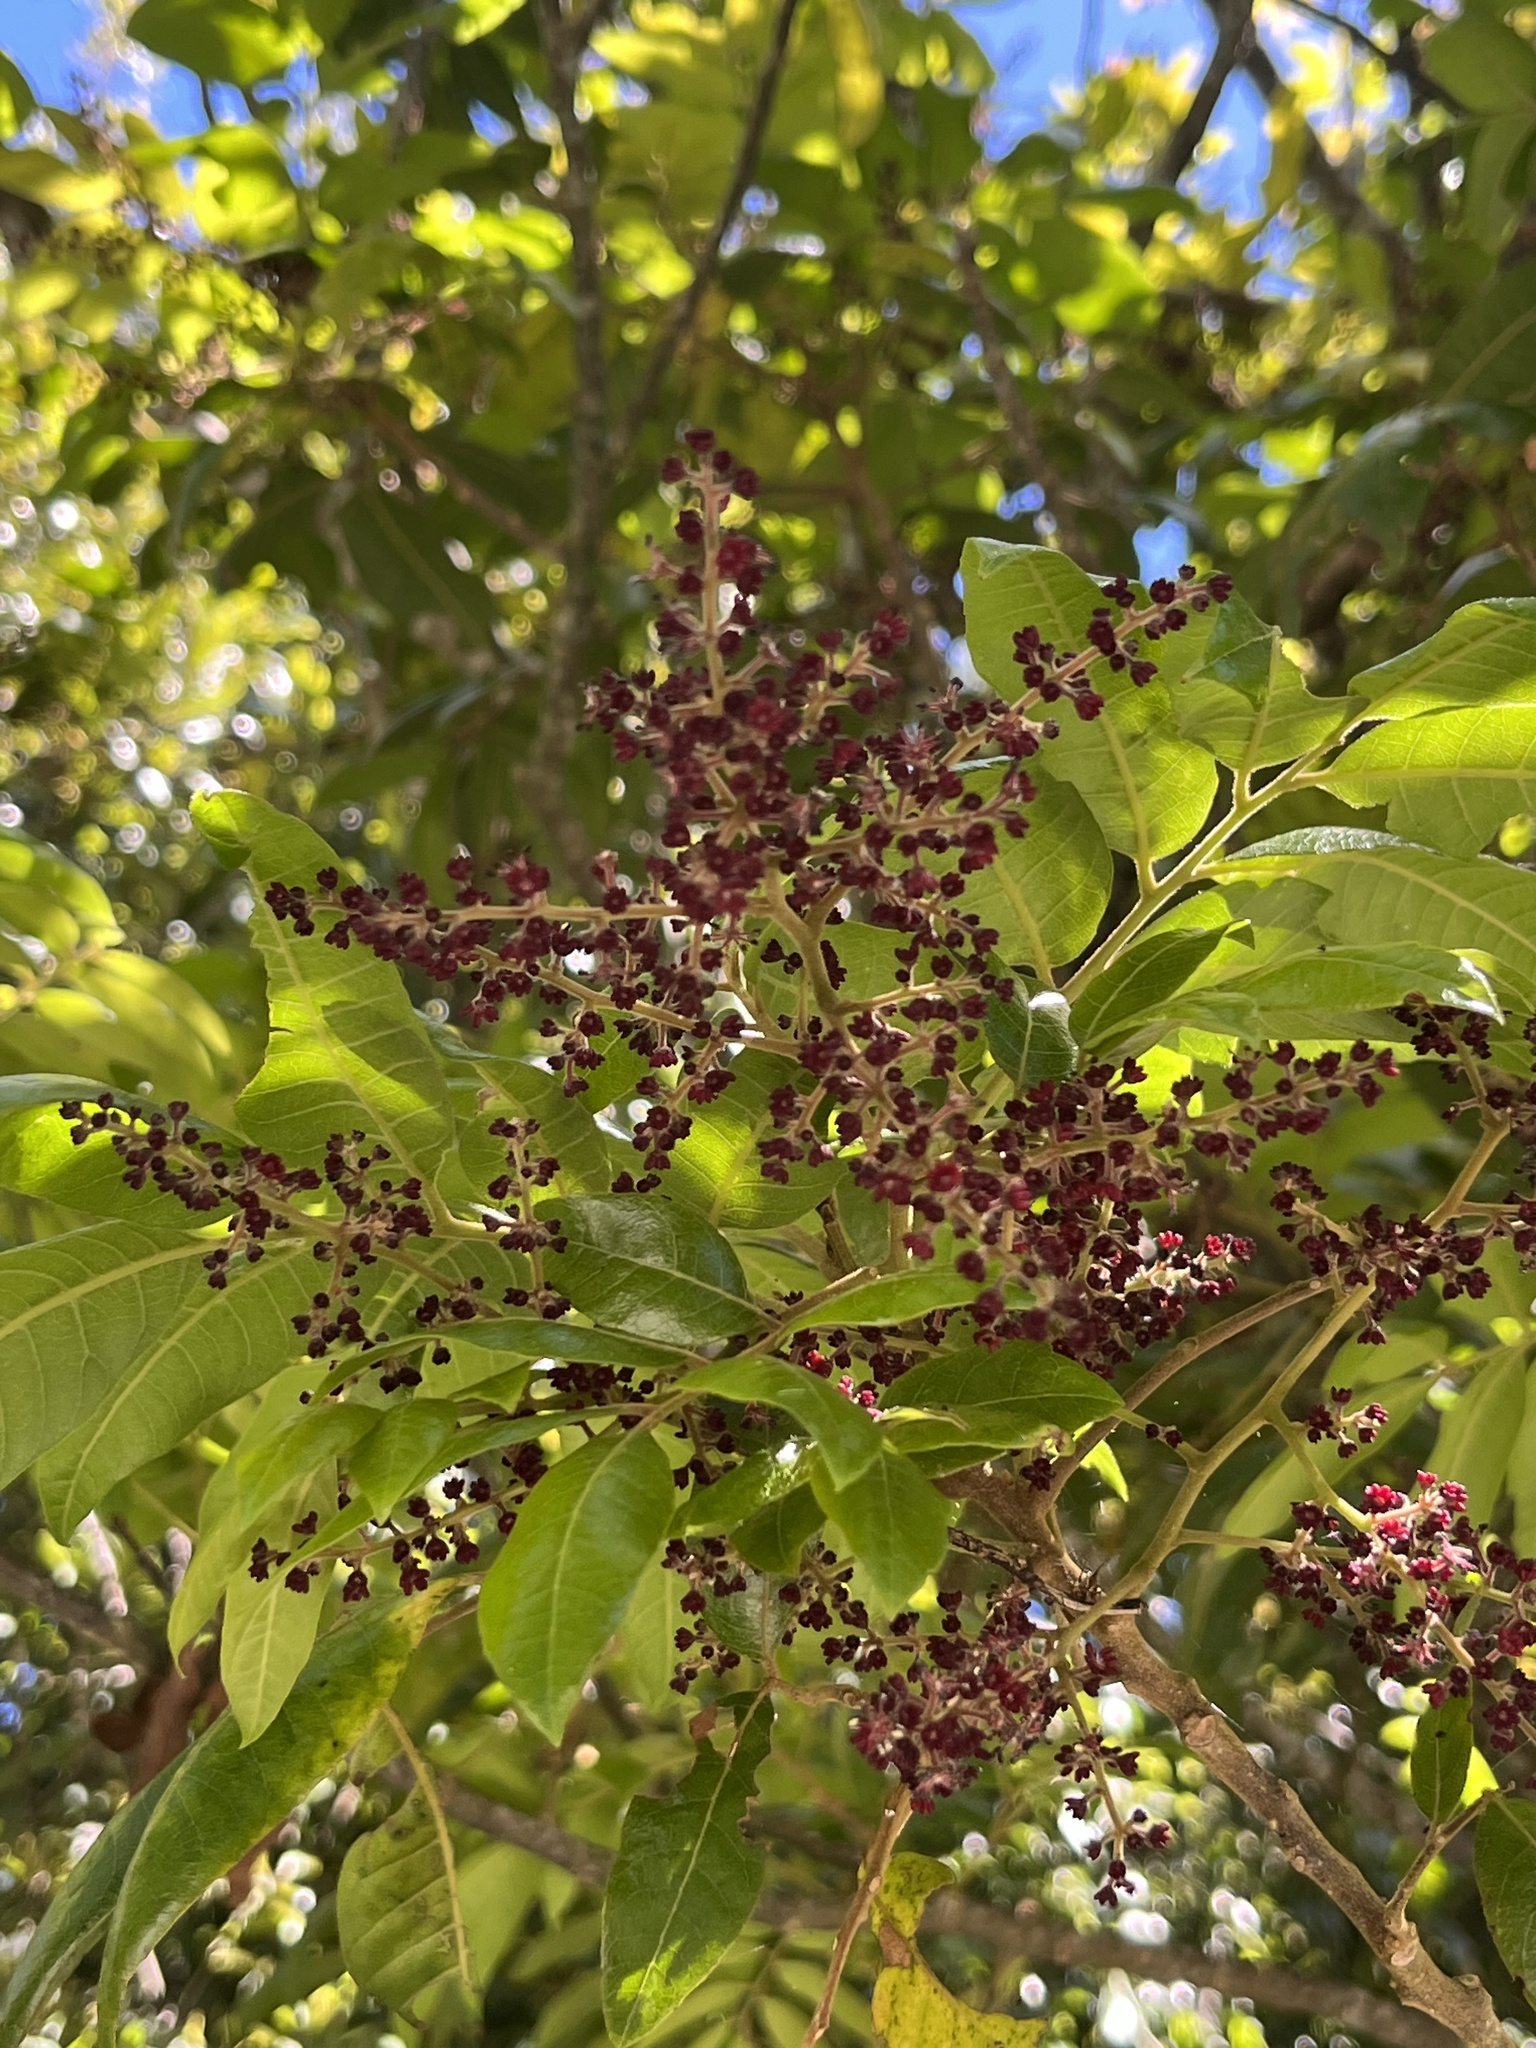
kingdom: Plantae
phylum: Tracheophyta
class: Magnoliopsida
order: Sapindales
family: Sapindaceae
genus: Alectryon
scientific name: Alectryon excelsus
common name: Three kings titoki
